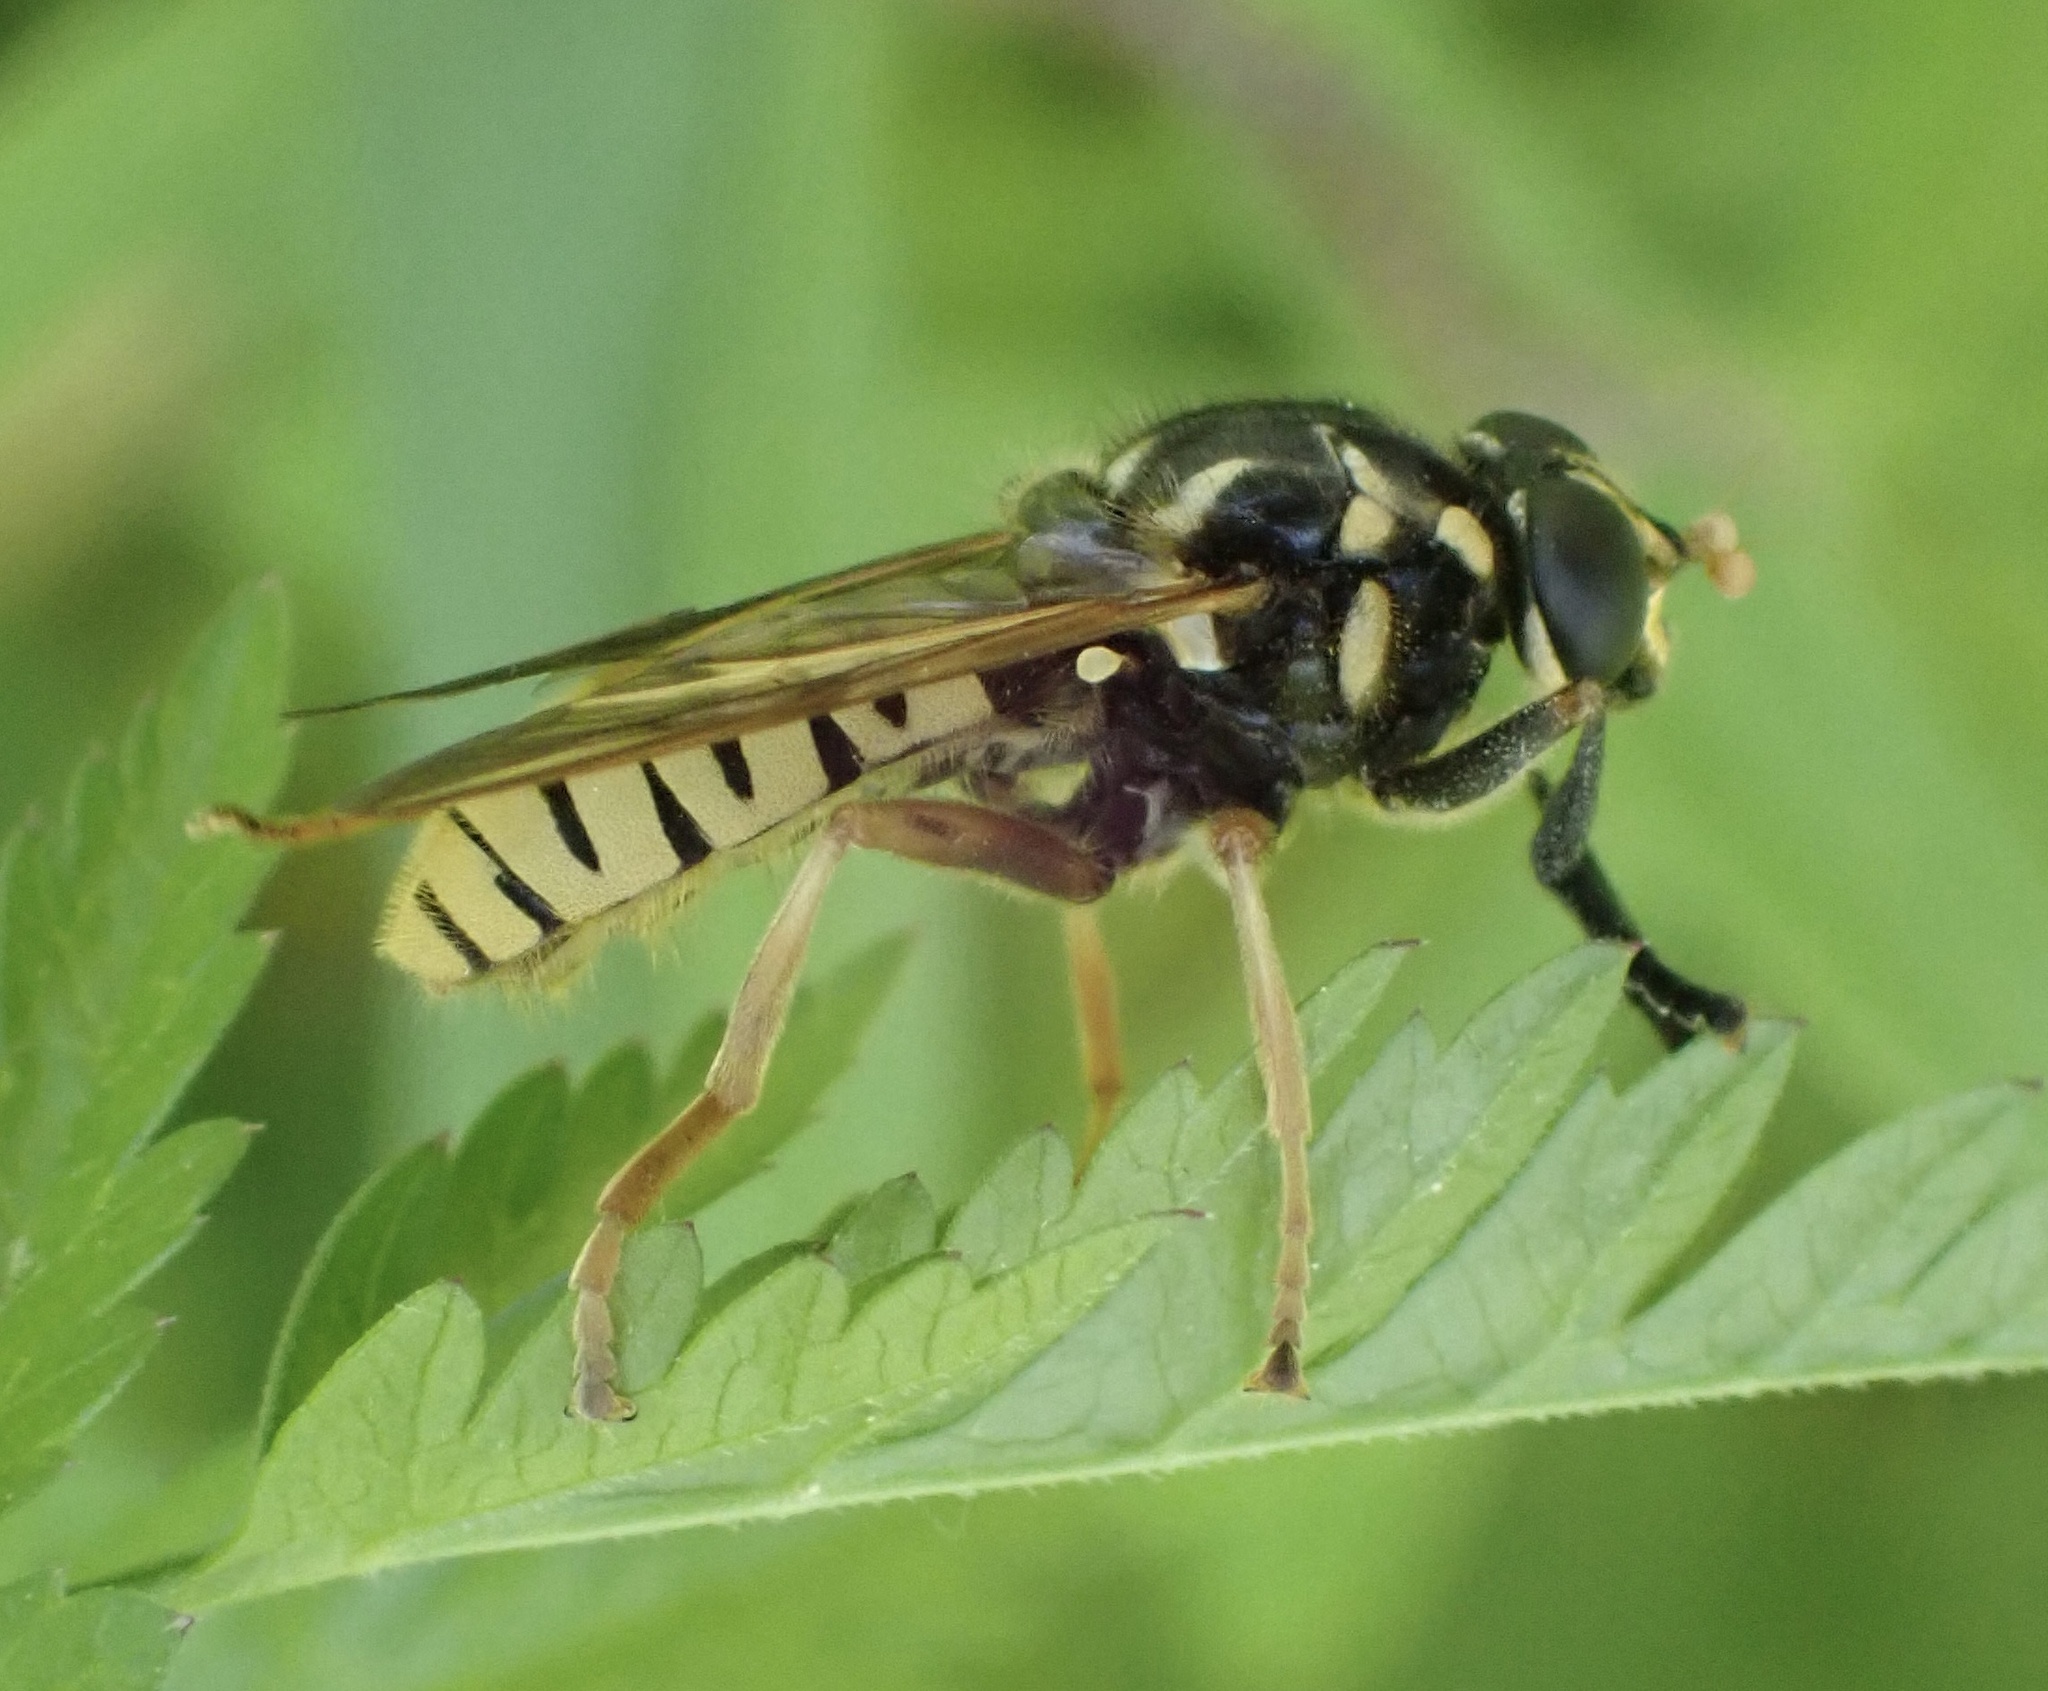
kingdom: Animalia
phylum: Arthropoda
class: Insecta
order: Diptera
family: Syrphidae
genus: Temnostoma
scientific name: Temnostoma vespiforme
